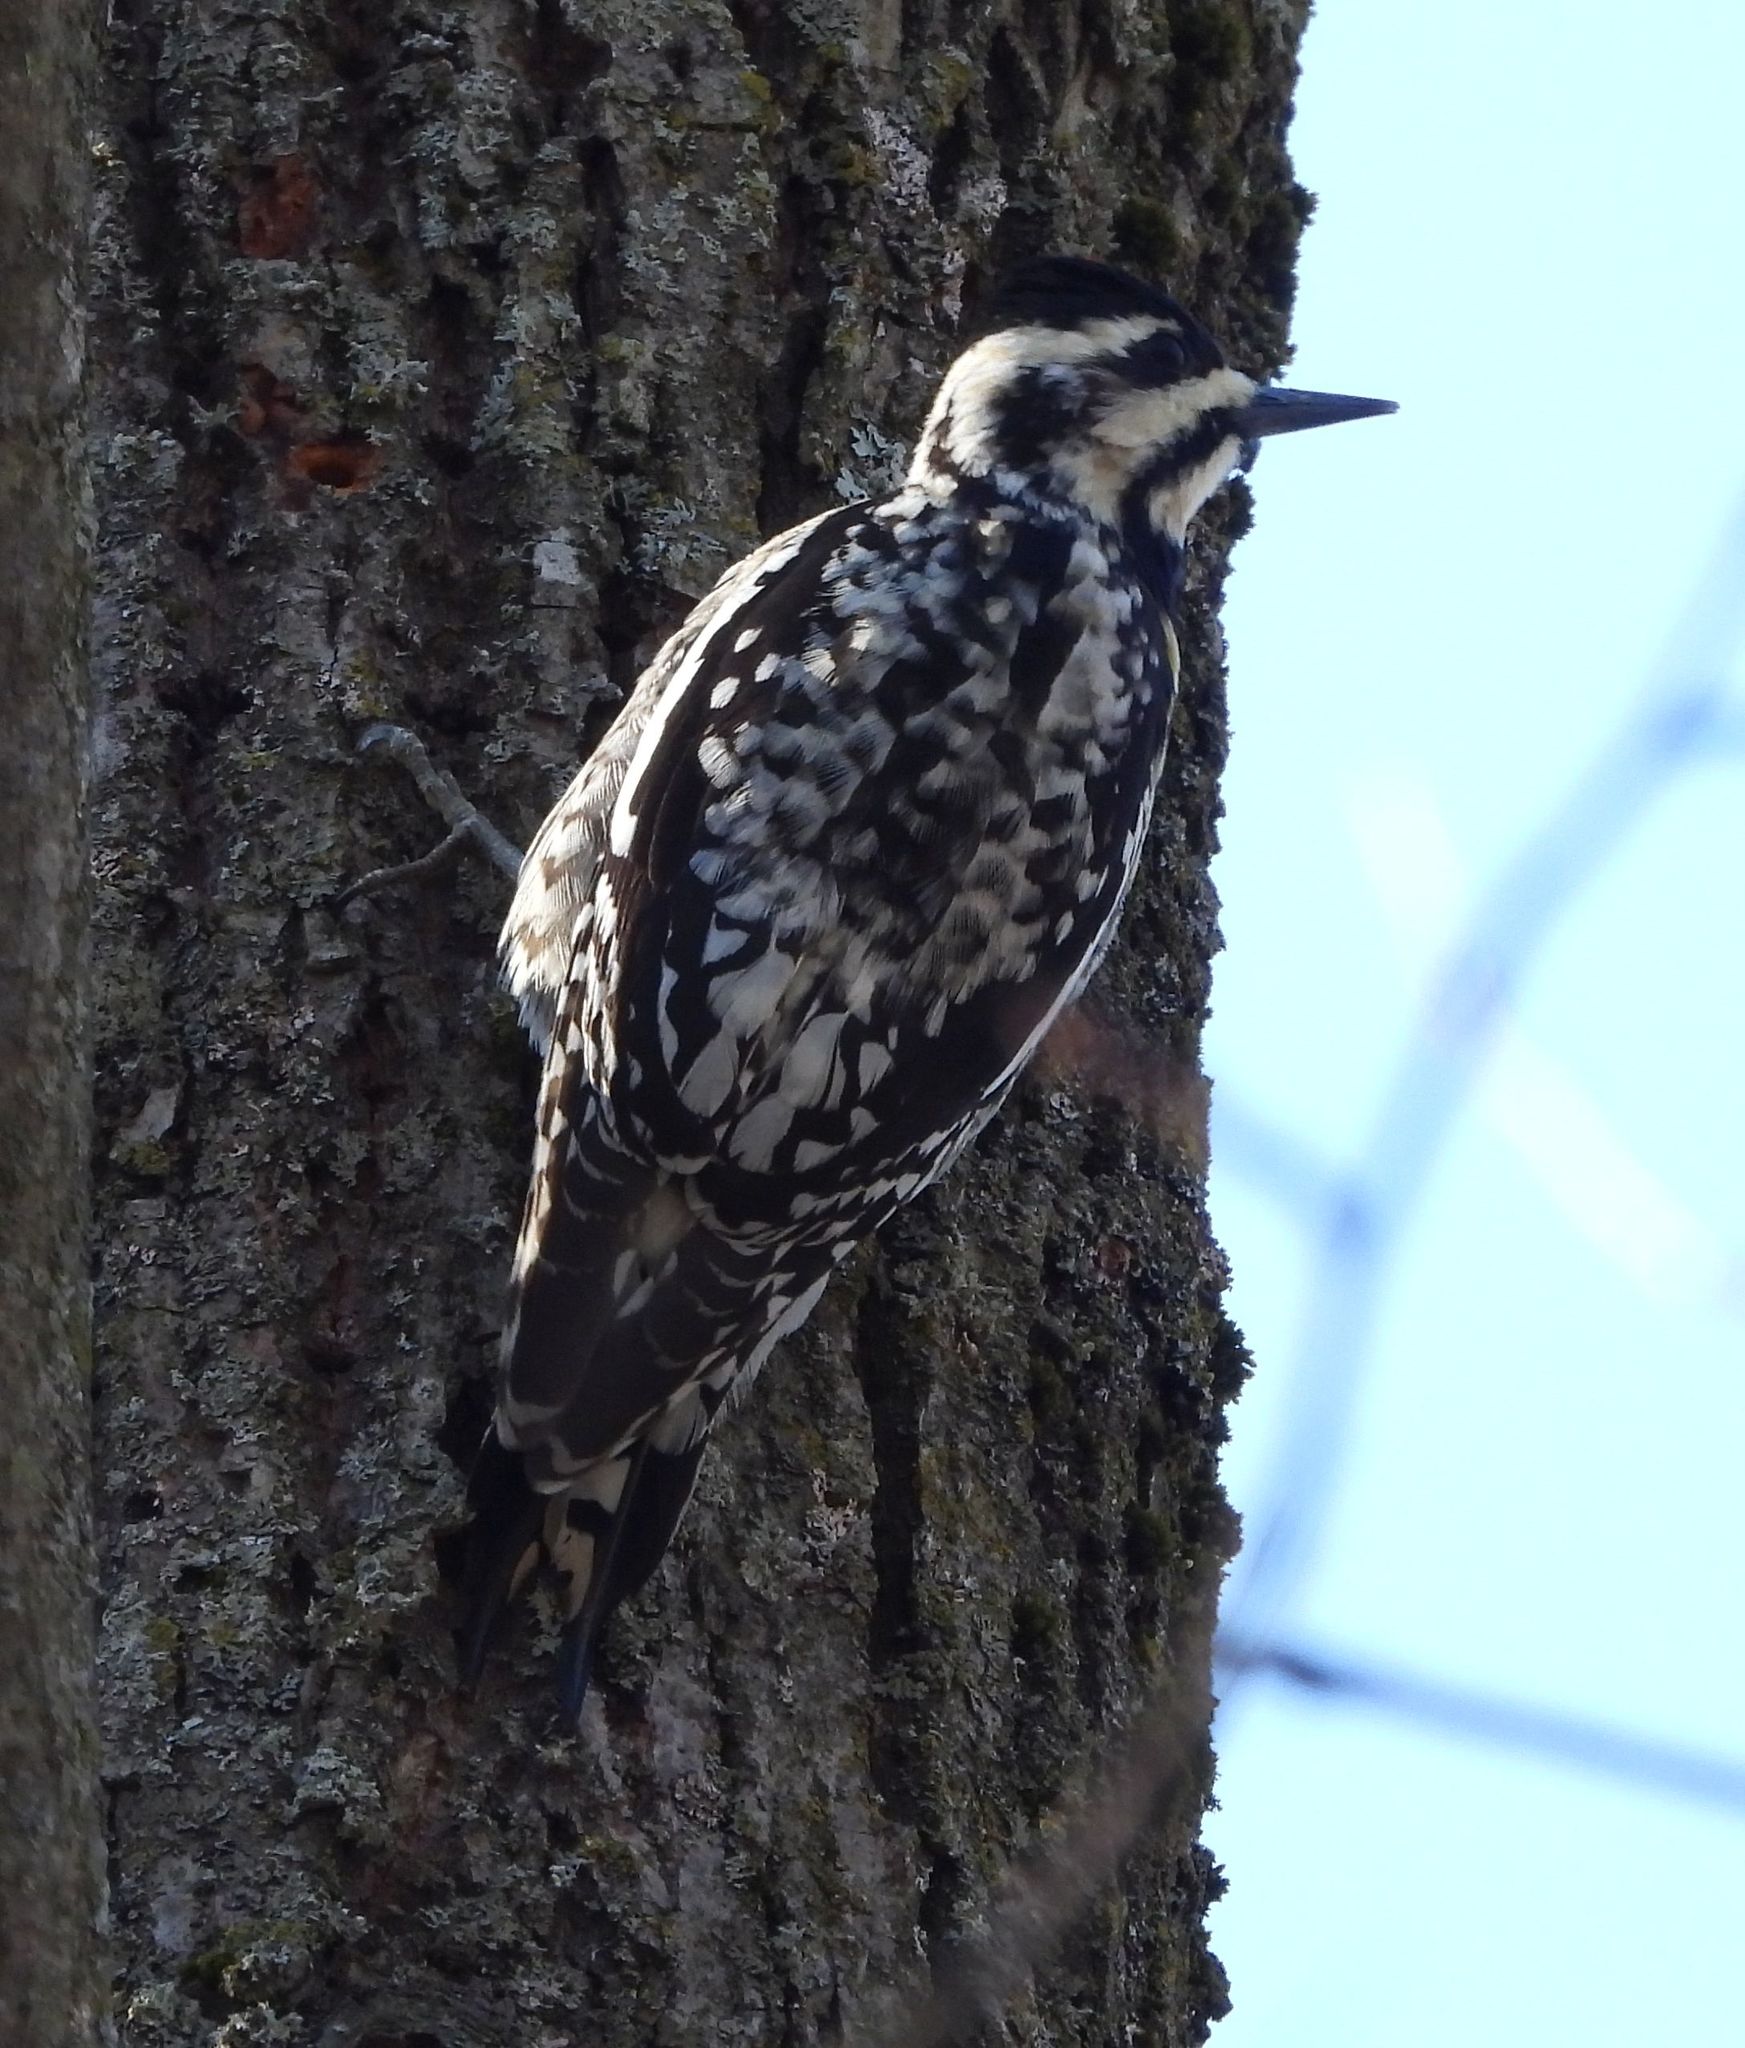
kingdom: Animalia
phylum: Chordata
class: Aves
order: Piciformes
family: Picidae
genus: Sphyrapicus
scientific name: Sphyrapicus varius
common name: Yellow-bellied sapsucker
